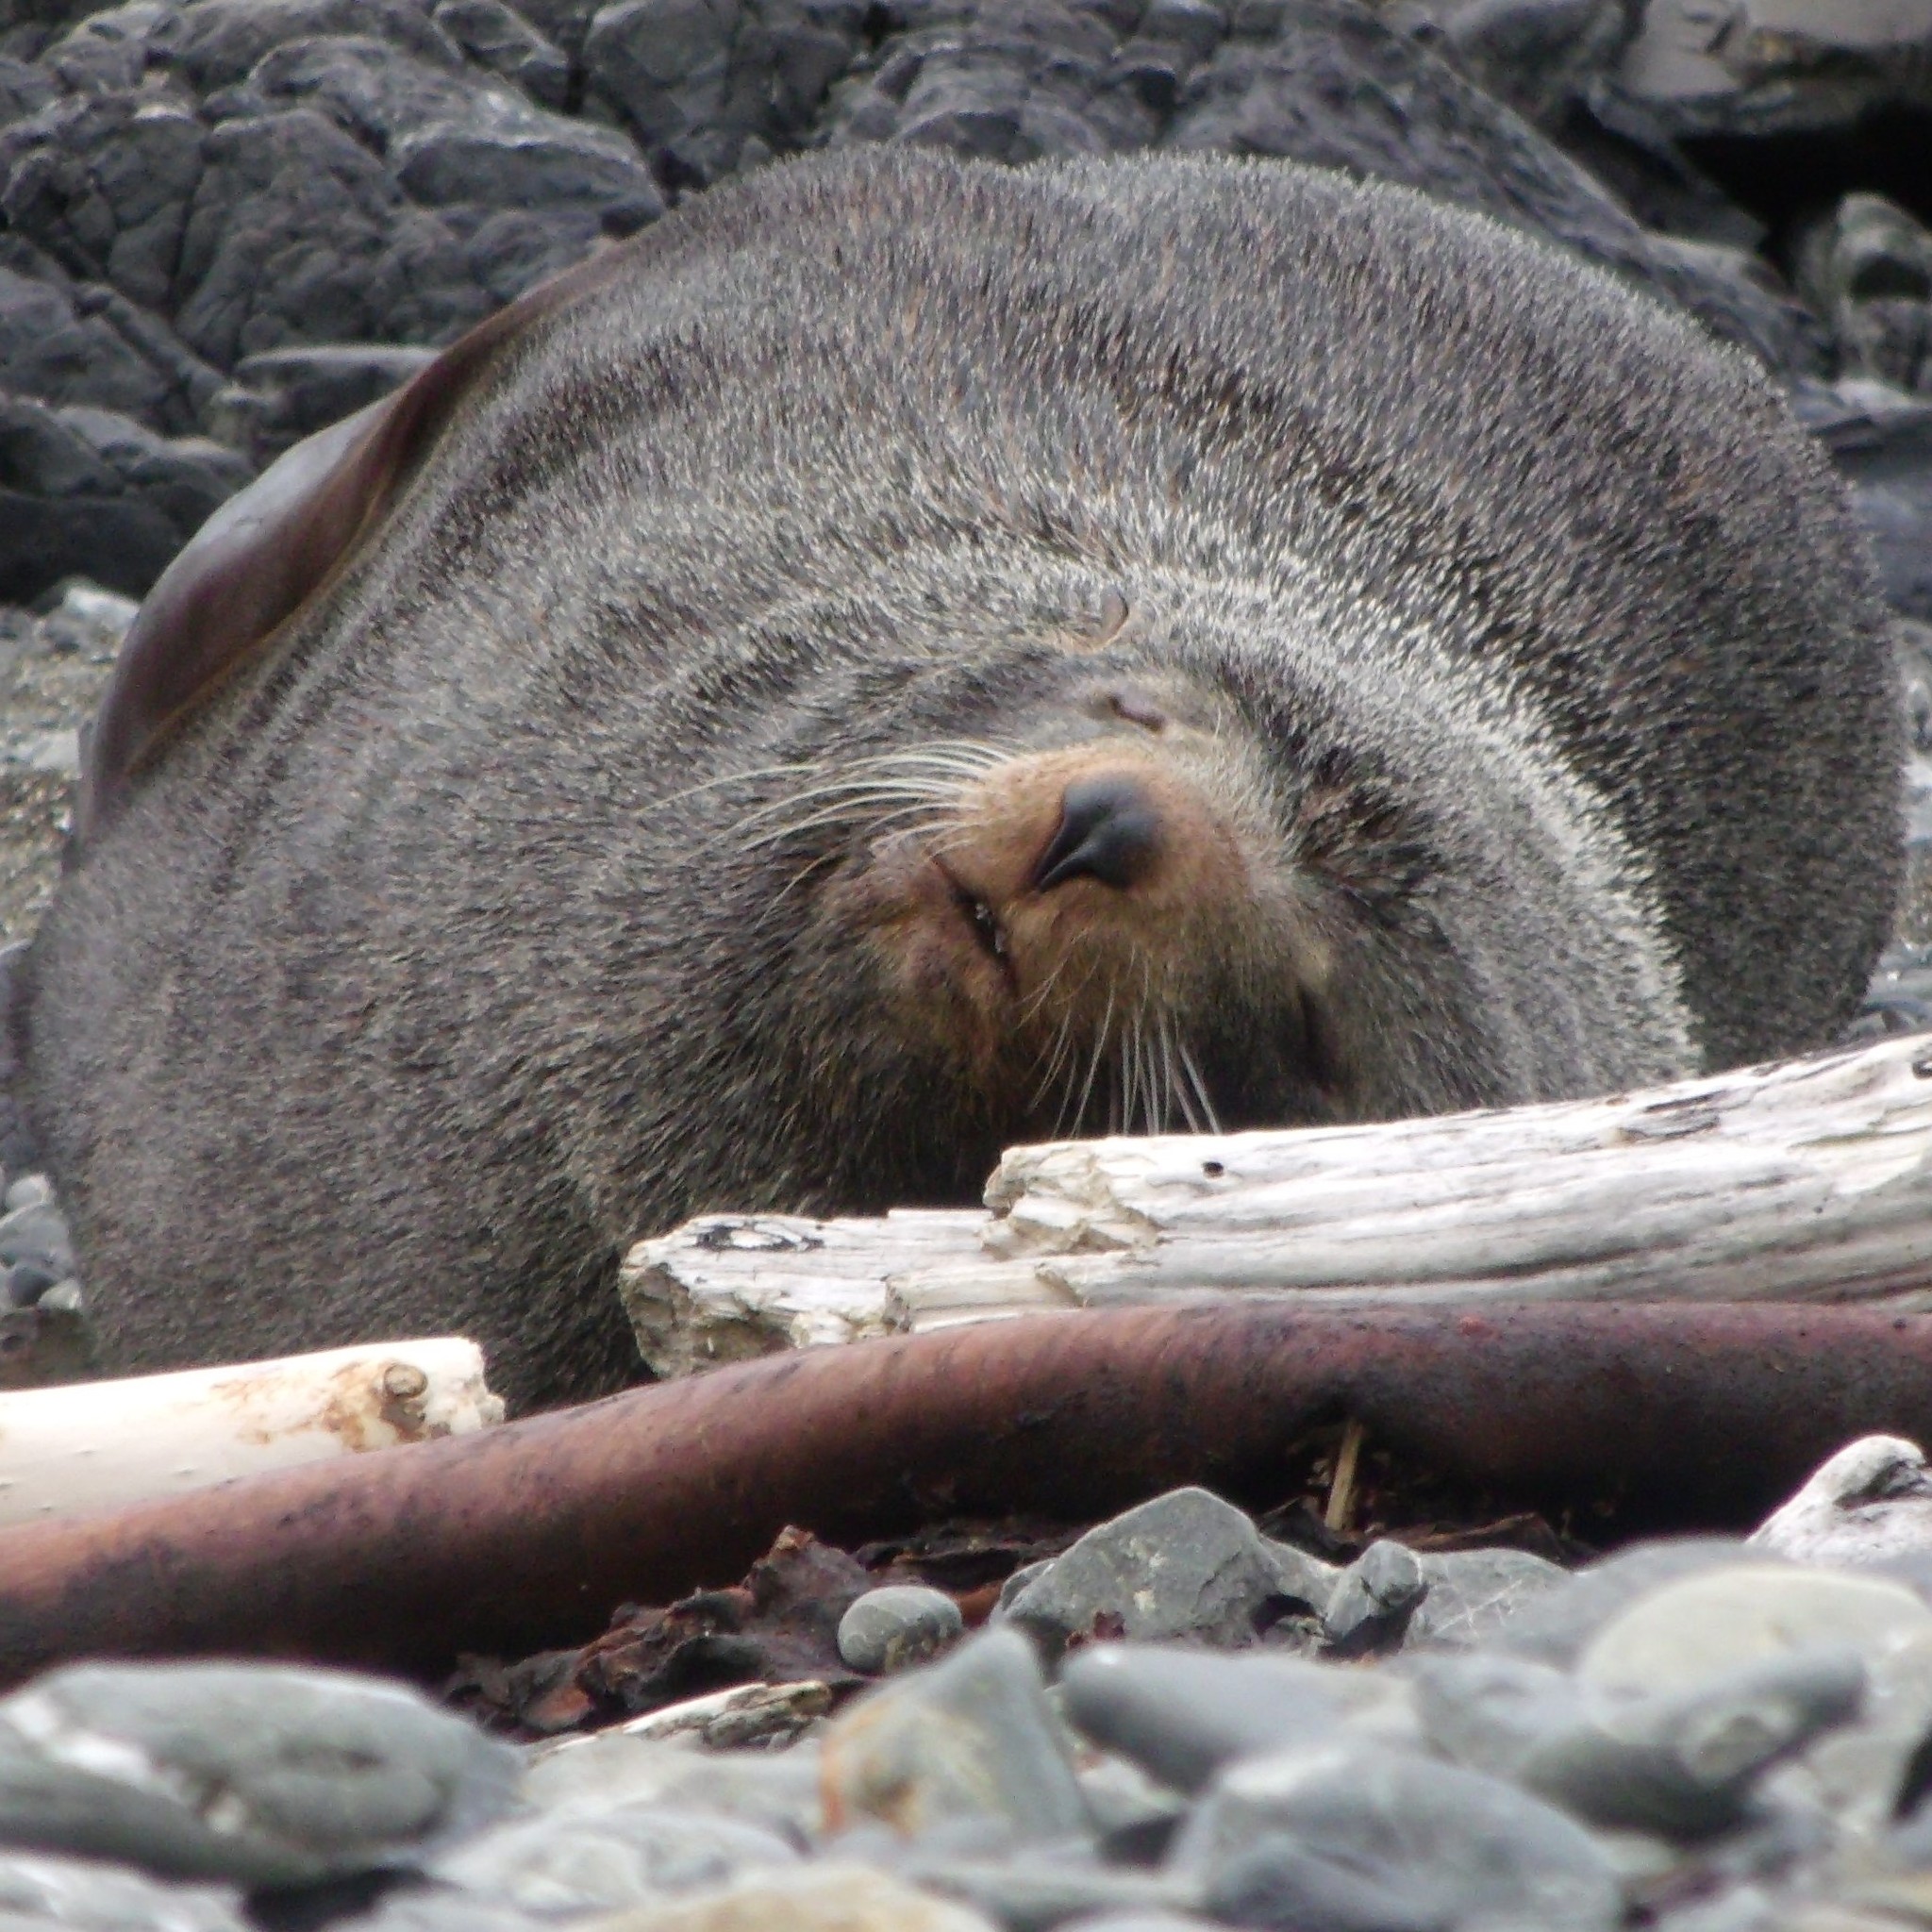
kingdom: Animalia
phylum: Chordata
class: Mammalia
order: Carnivora
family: Otariidae
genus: Arctocephalus
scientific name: Arctocephalus forsteri
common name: New zealand fur seal
